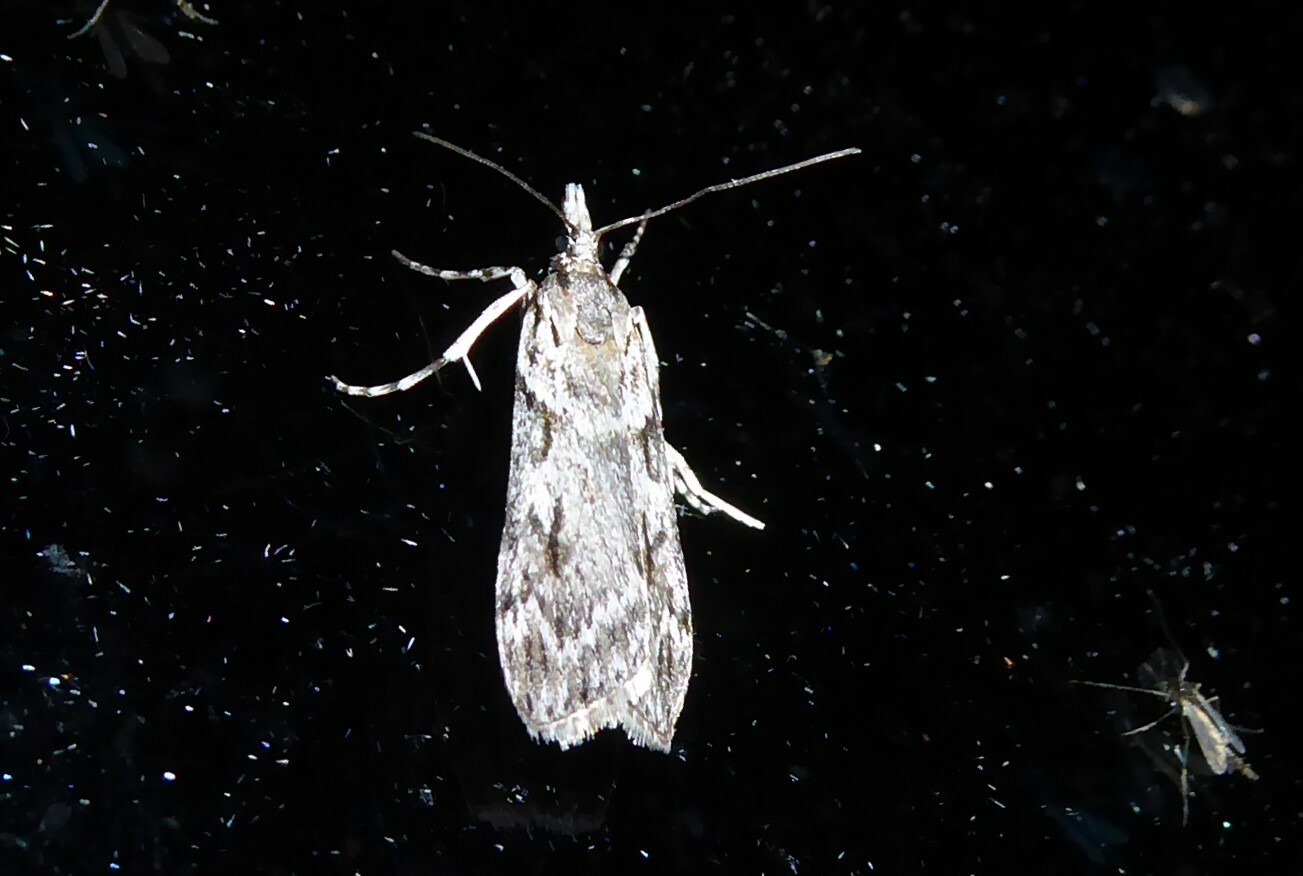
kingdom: Animalia
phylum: Arthropoda
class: Insecta
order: Lepidoptera
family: Crambidae
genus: Scoparia
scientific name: Scoparia halopis
